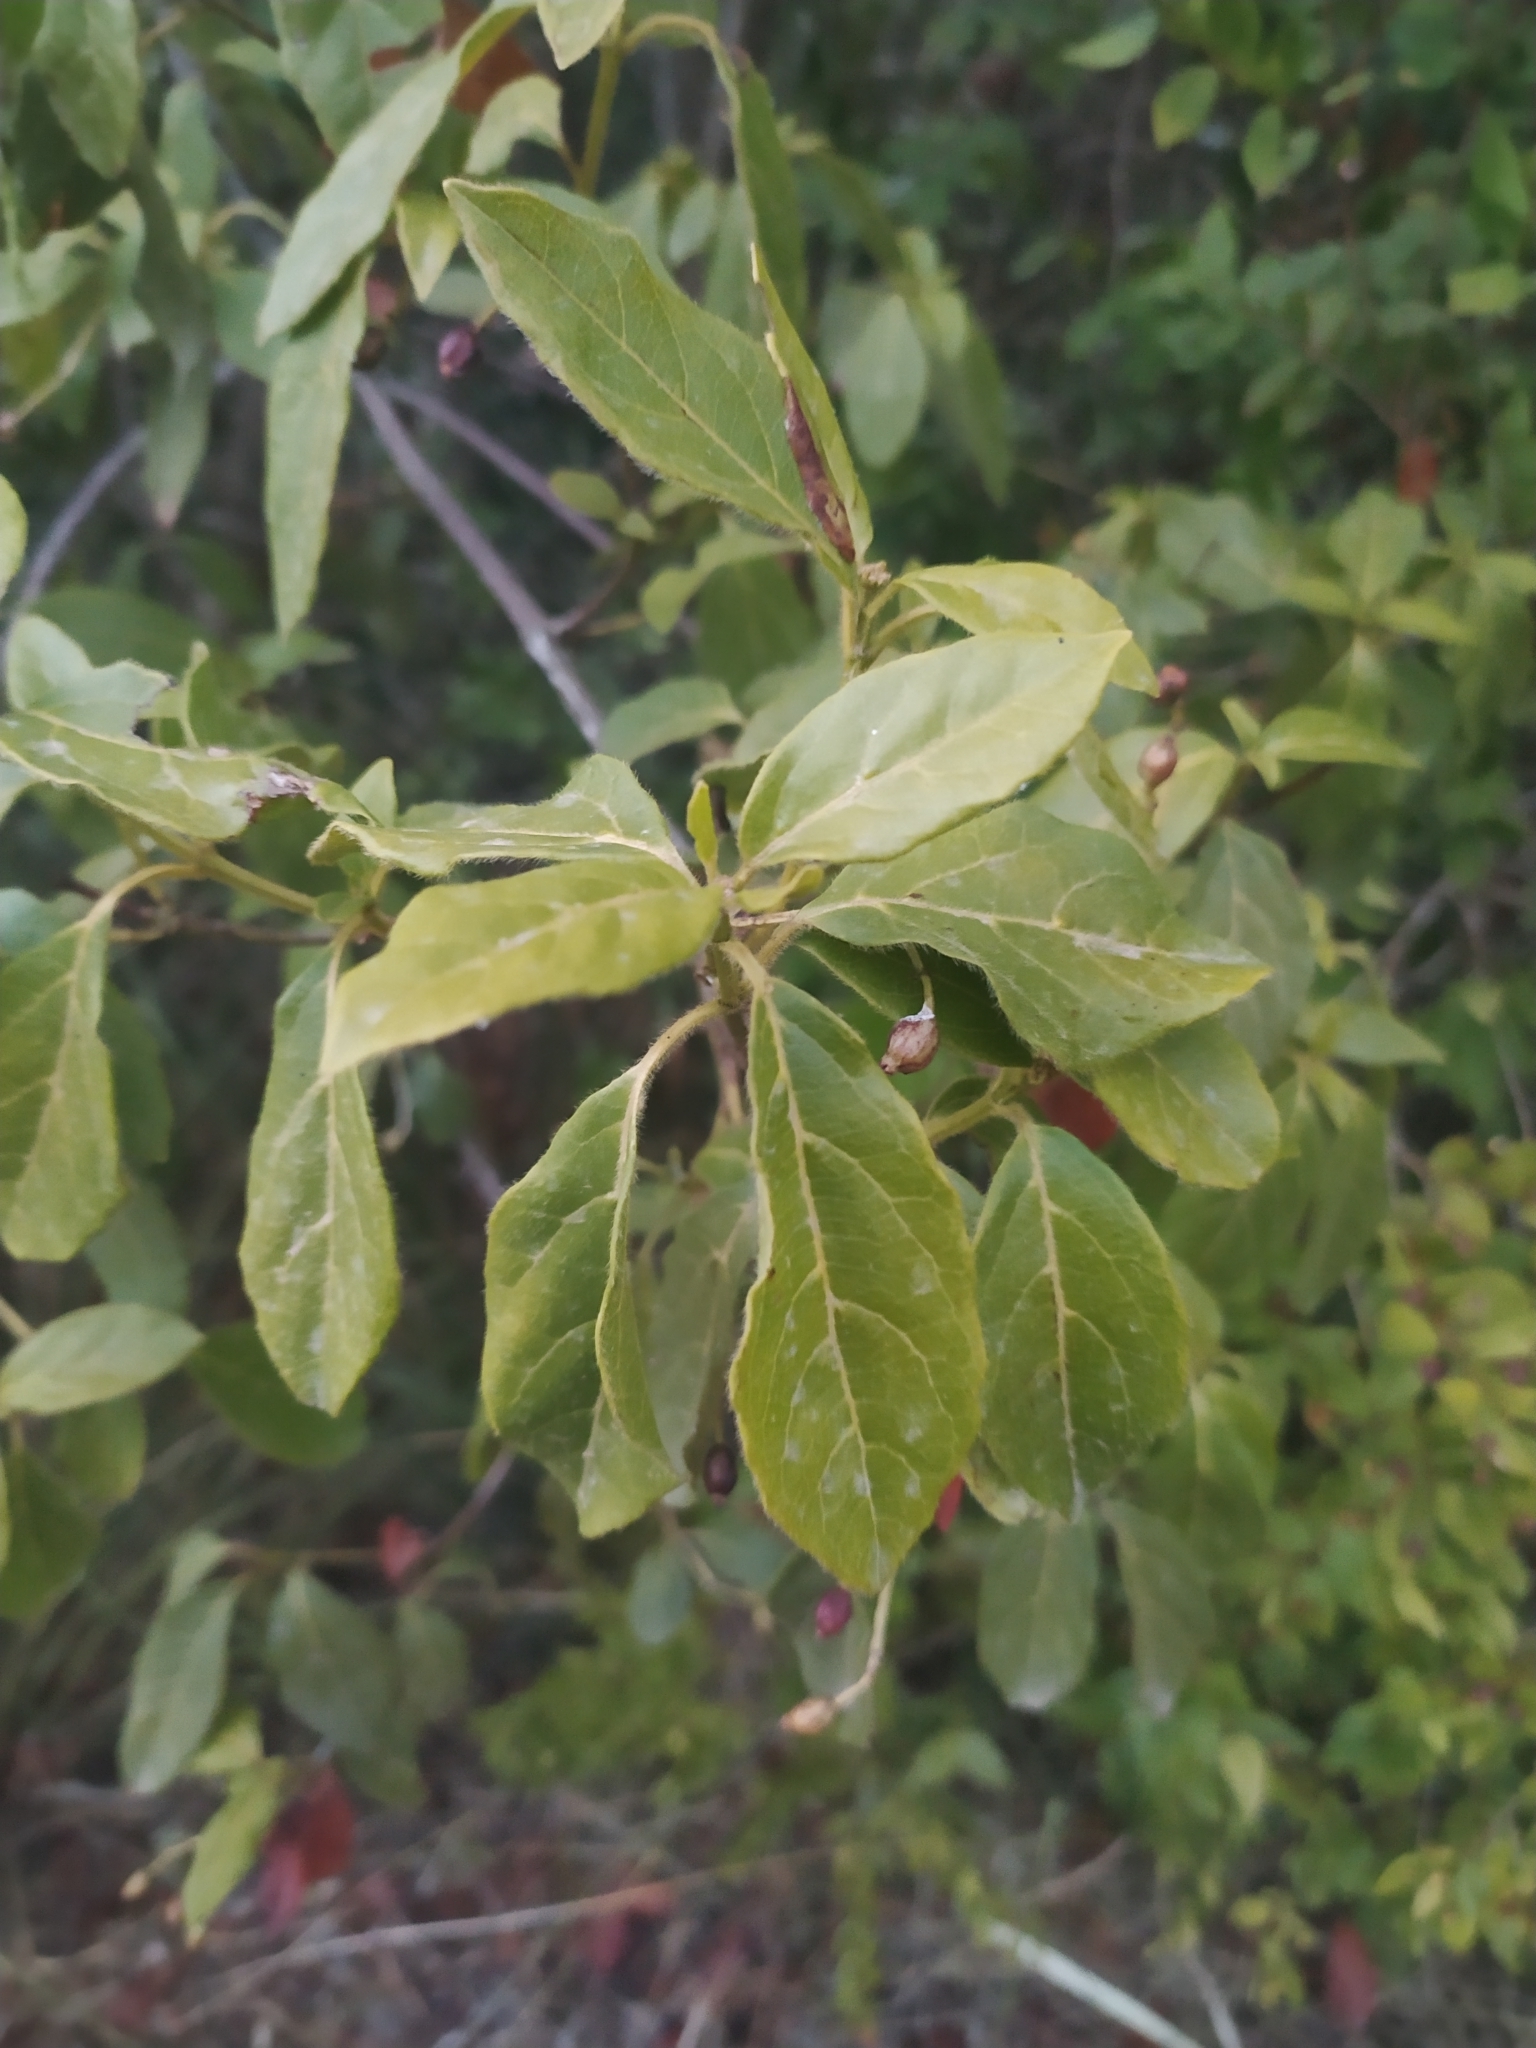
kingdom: Plantae
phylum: Tracheophyta
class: Magnoliopsida
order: Dipsacales
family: Viburnaceae
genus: Viburnum
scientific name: Viburnum tinus
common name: Laurustinus
